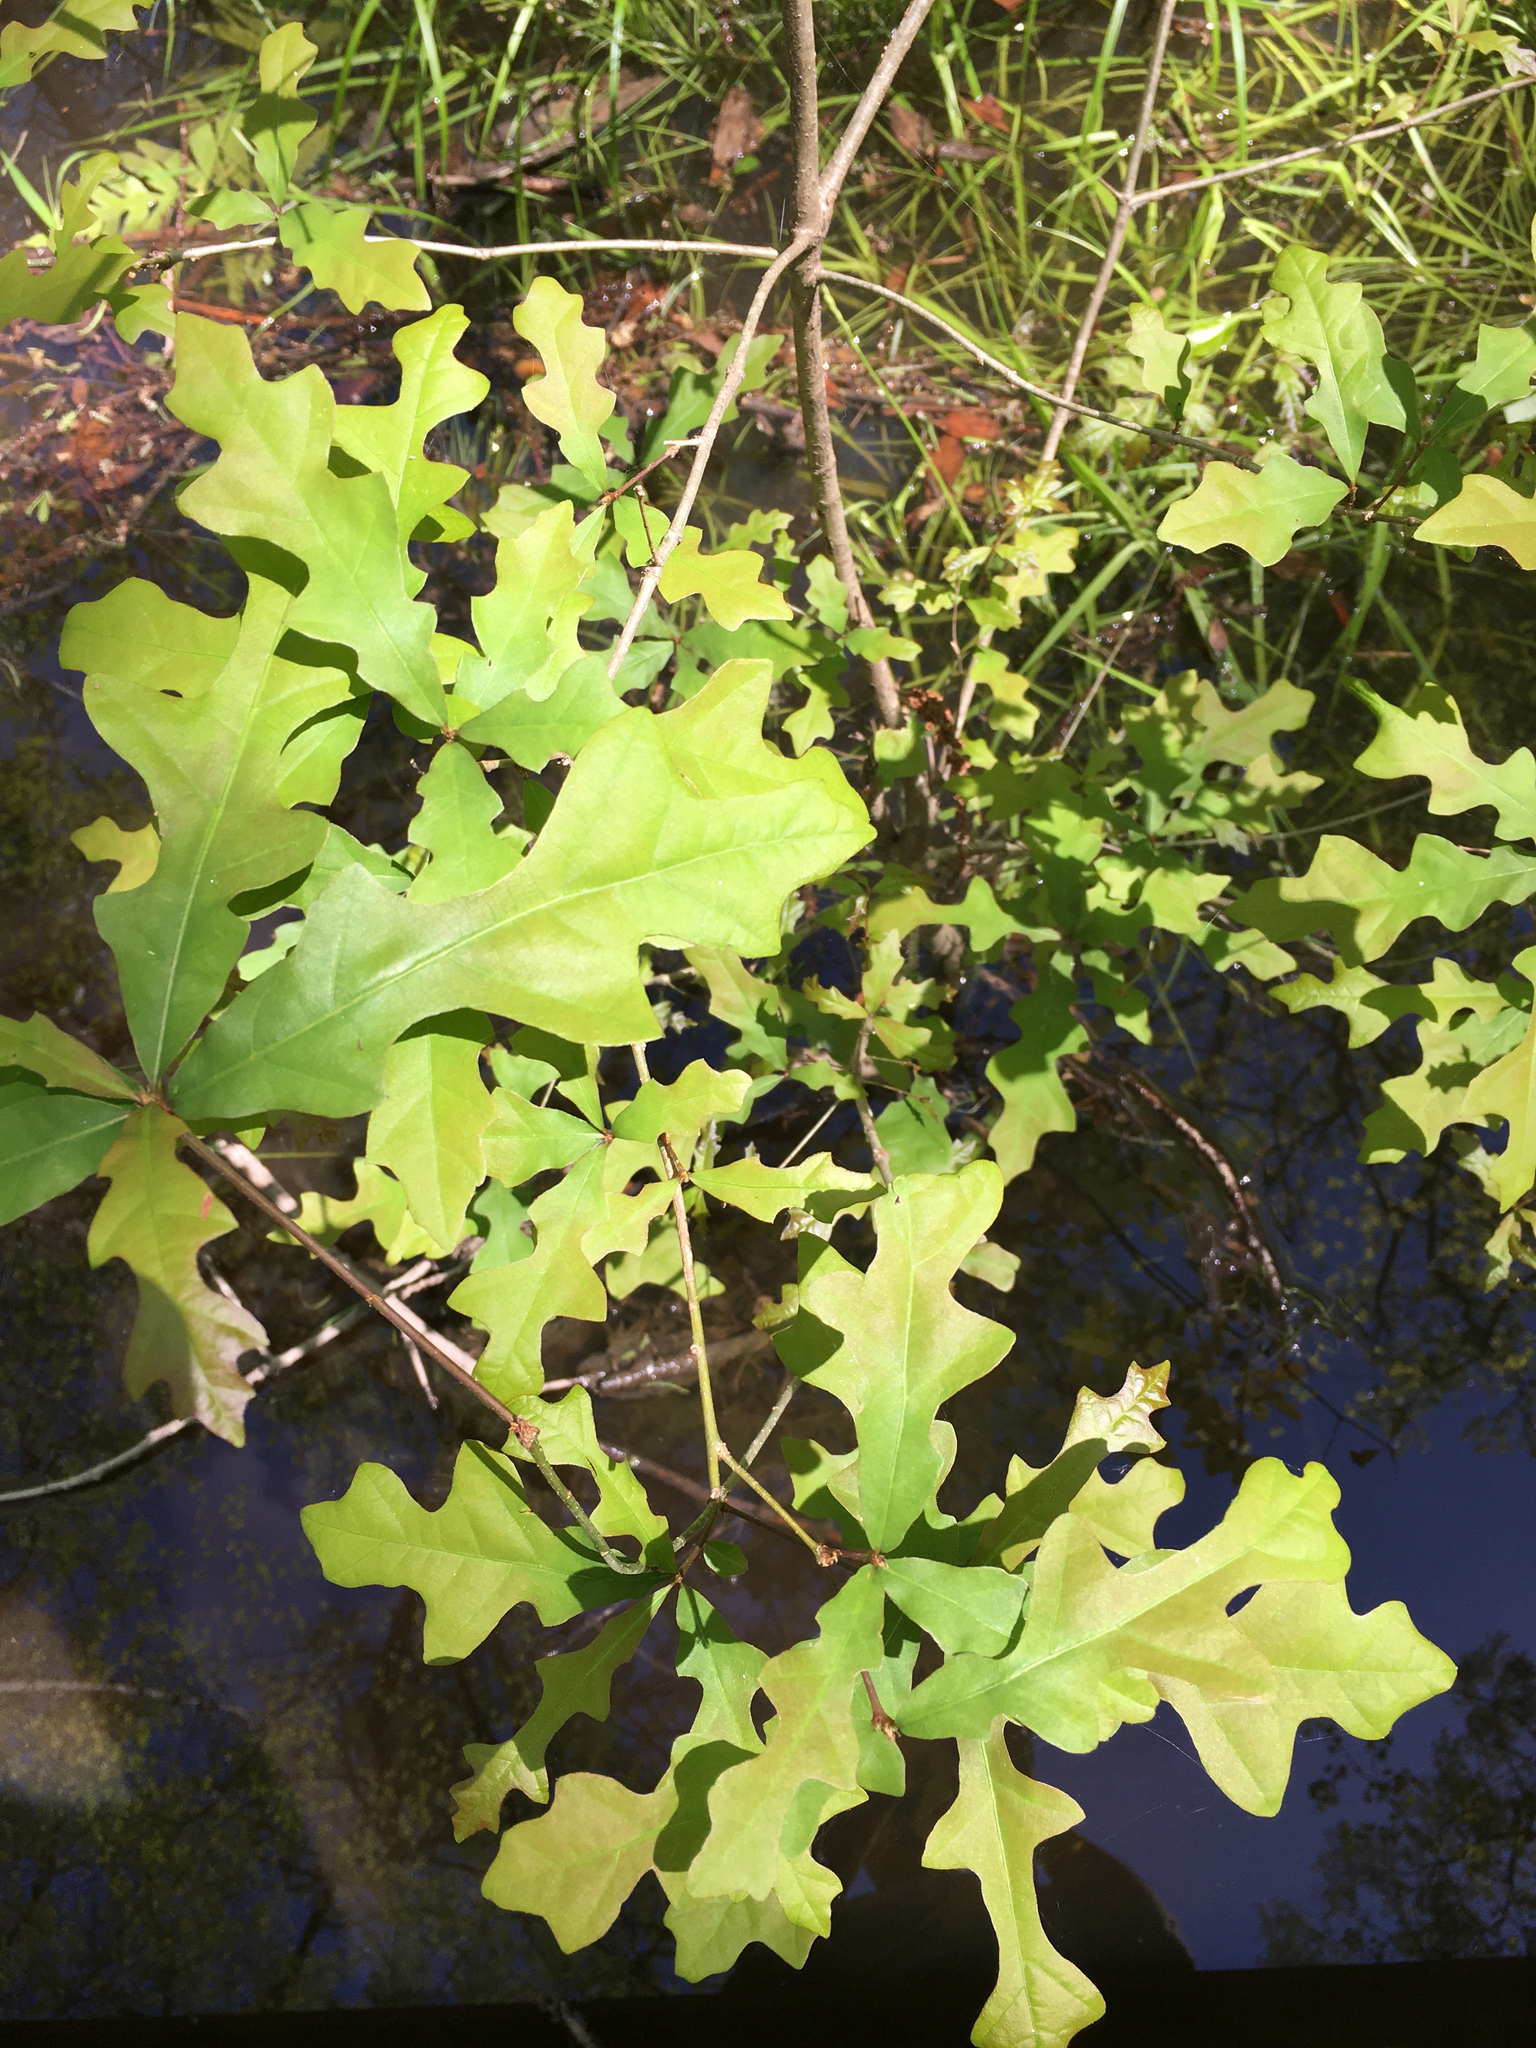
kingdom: Plantae
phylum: Tracheophyta
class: Magnoliopsida
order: Fagales
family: Fagaceae
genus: Quercus
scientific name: Quercus lyrata
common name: Overcup oak
